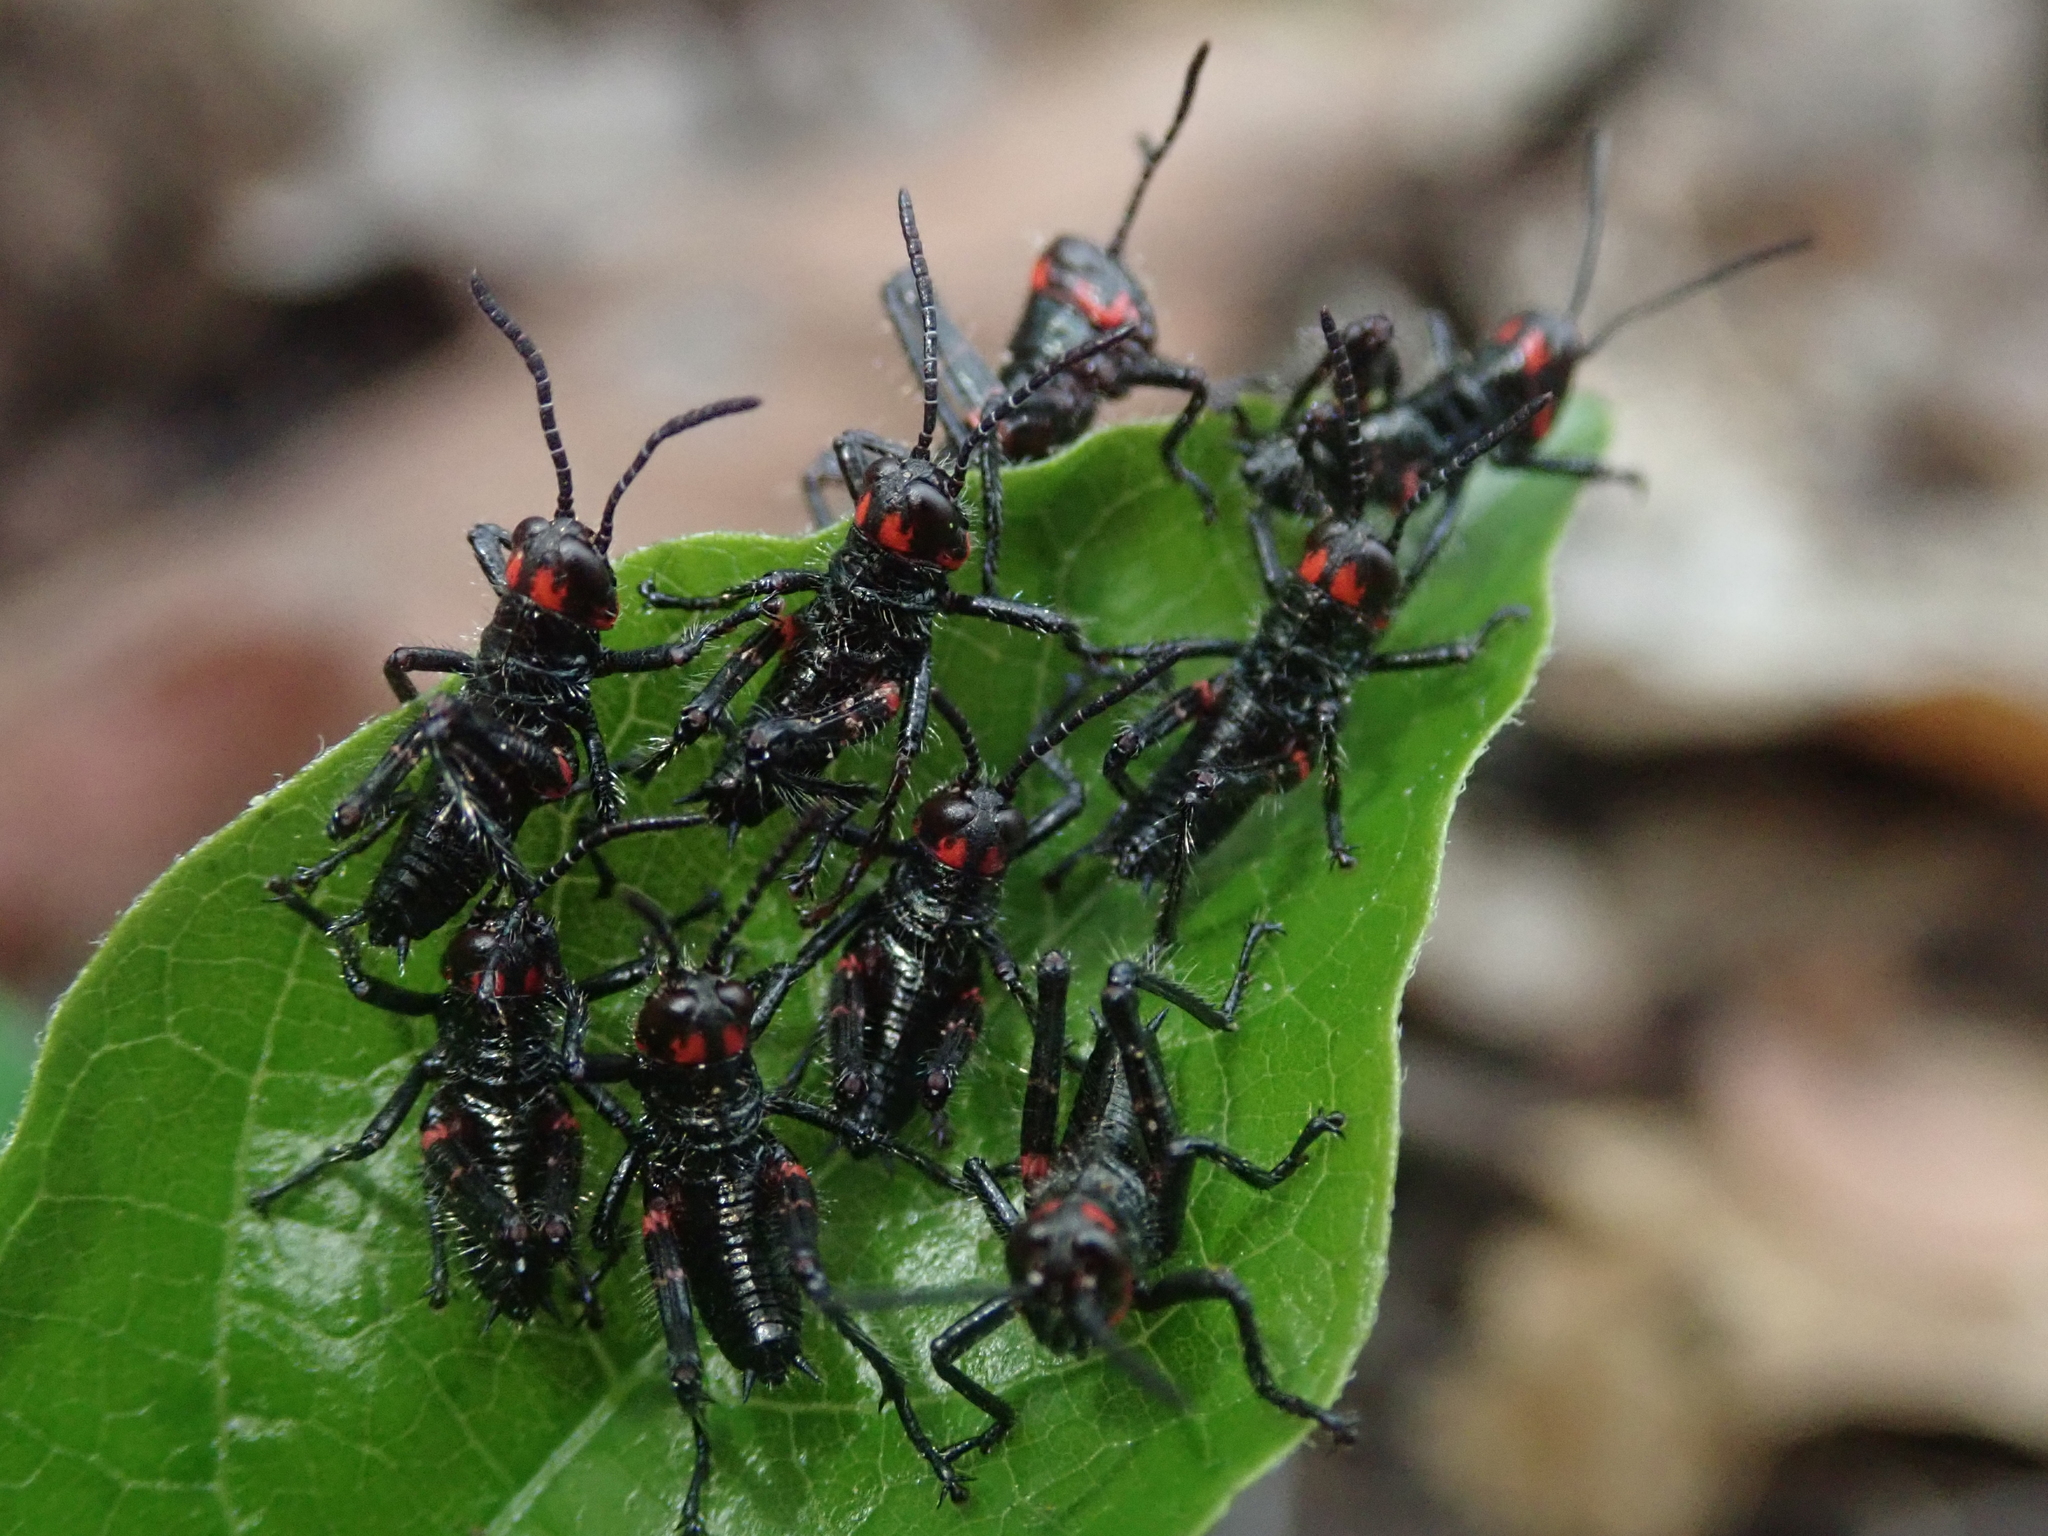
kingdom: Animalia
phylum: Arthropoda
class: Insecta
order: Orthoptera
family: Romaleidae
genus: Chromacris
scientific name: Chromacris speciosa
